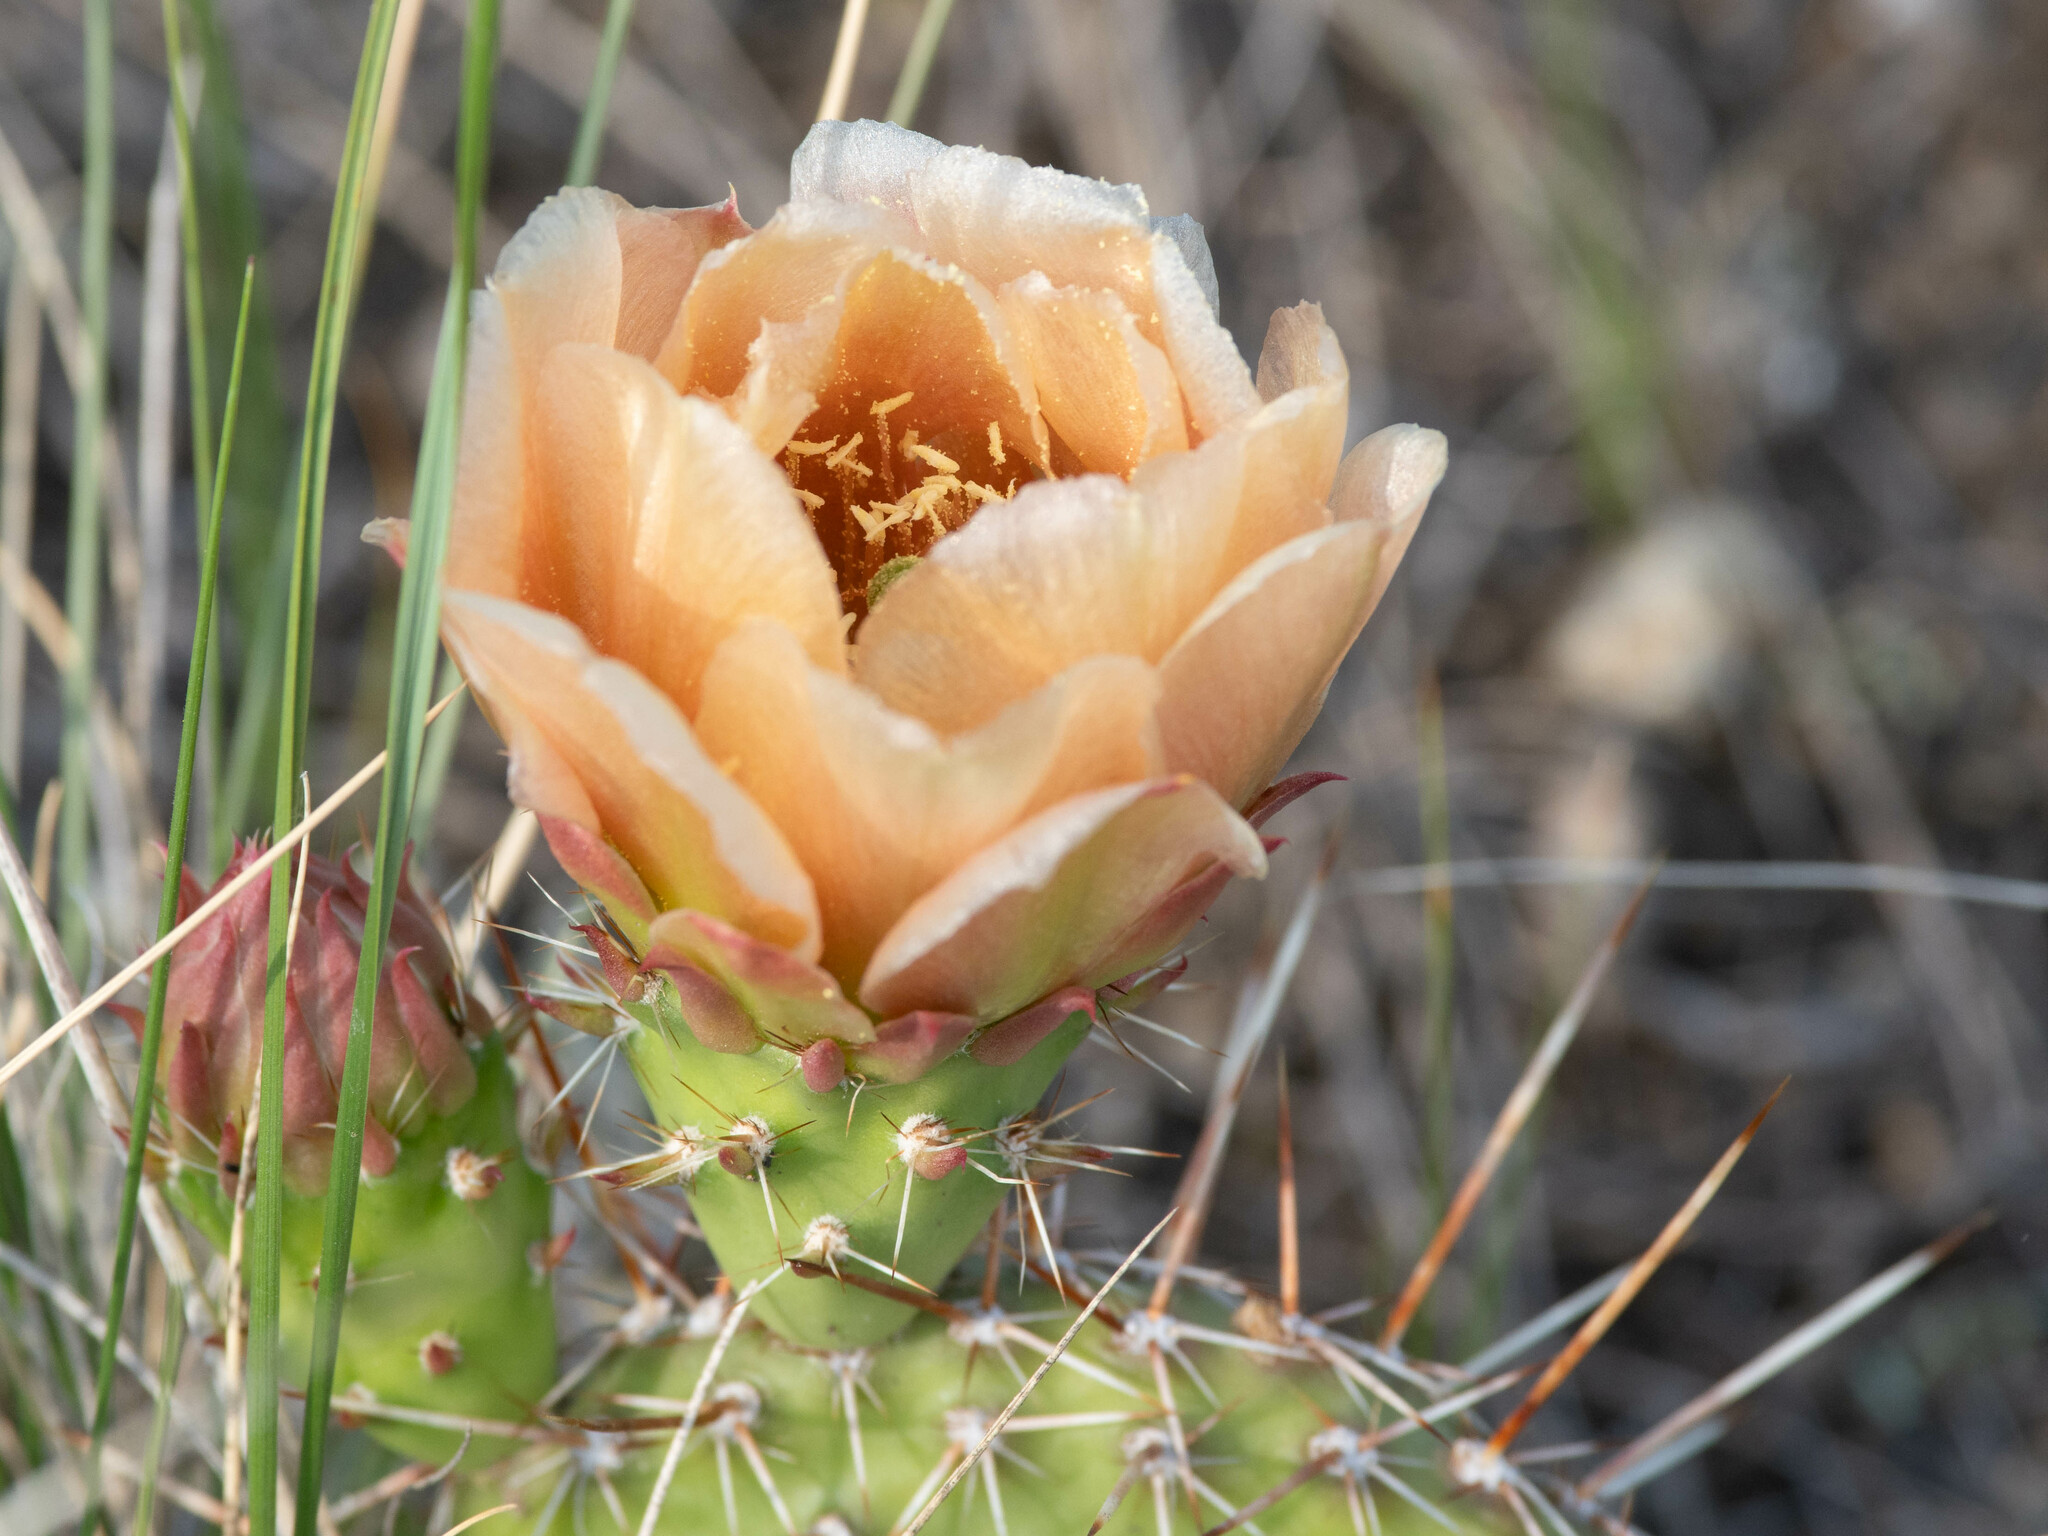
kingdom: Plantae
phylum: Tracheophyta
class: Magnoliopsida
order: Caryophyllales
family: Cactaceae
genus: Opuntia
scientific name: Opuntia polyacantha
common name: Plains prickly-pear
